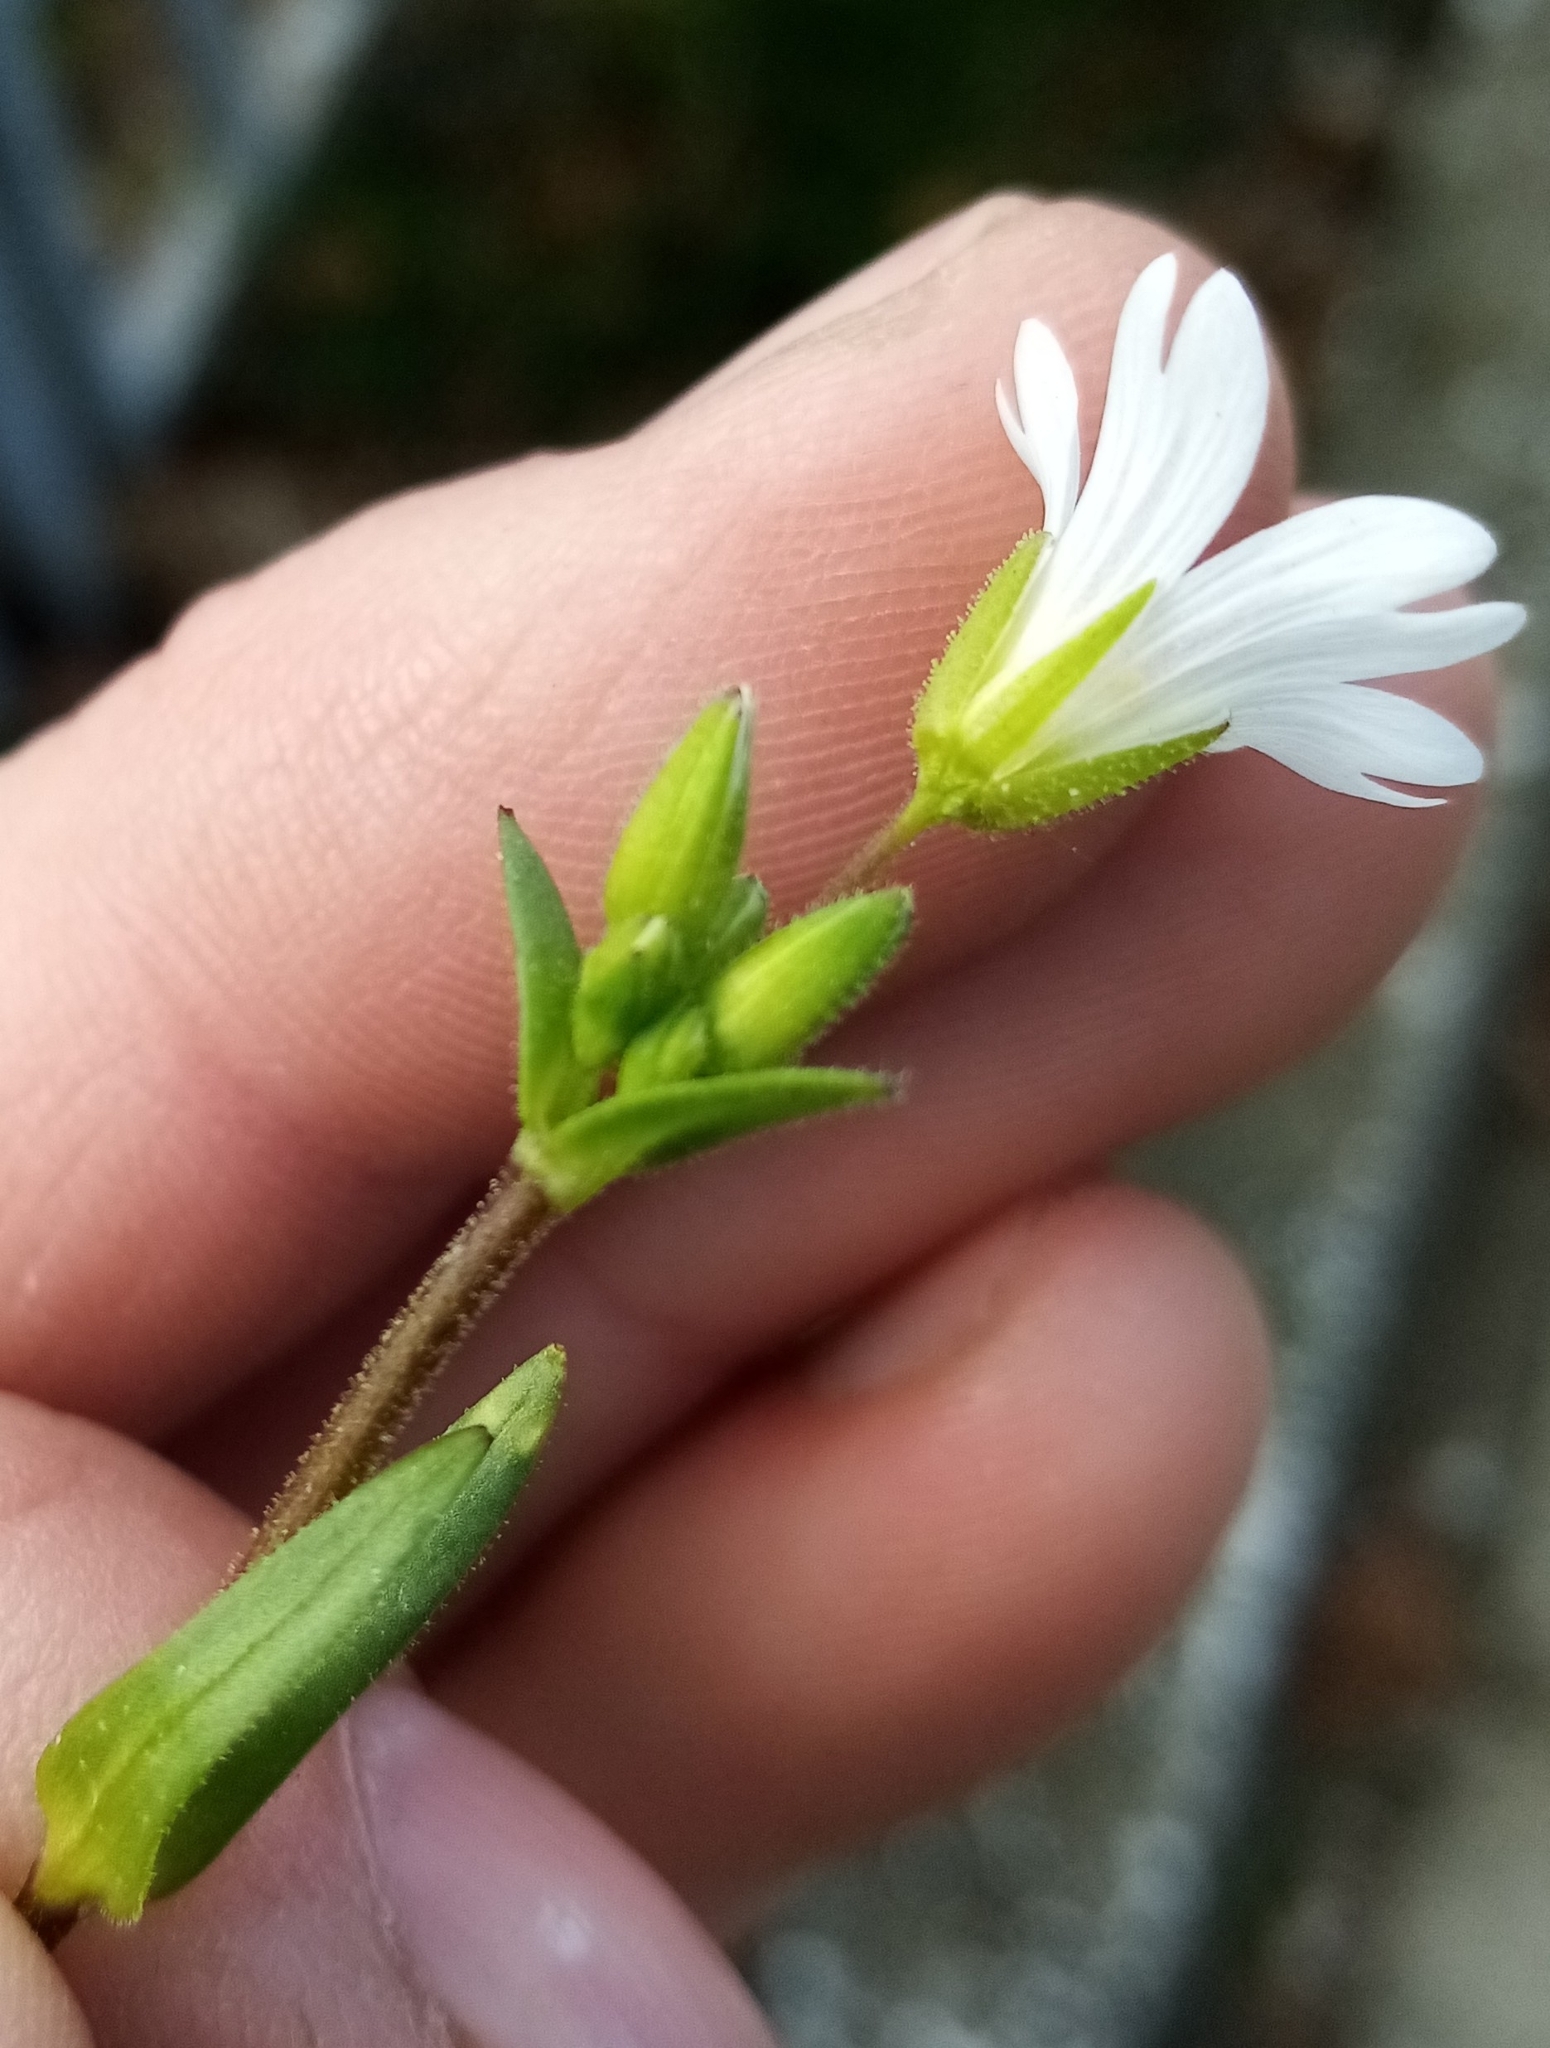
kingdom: Plantae
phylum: Tracheophyta
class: Magnoliopsida
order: Caryophyllales
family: Caryophyllaceae
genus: Dichodon
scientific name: Dichodon viscidum
